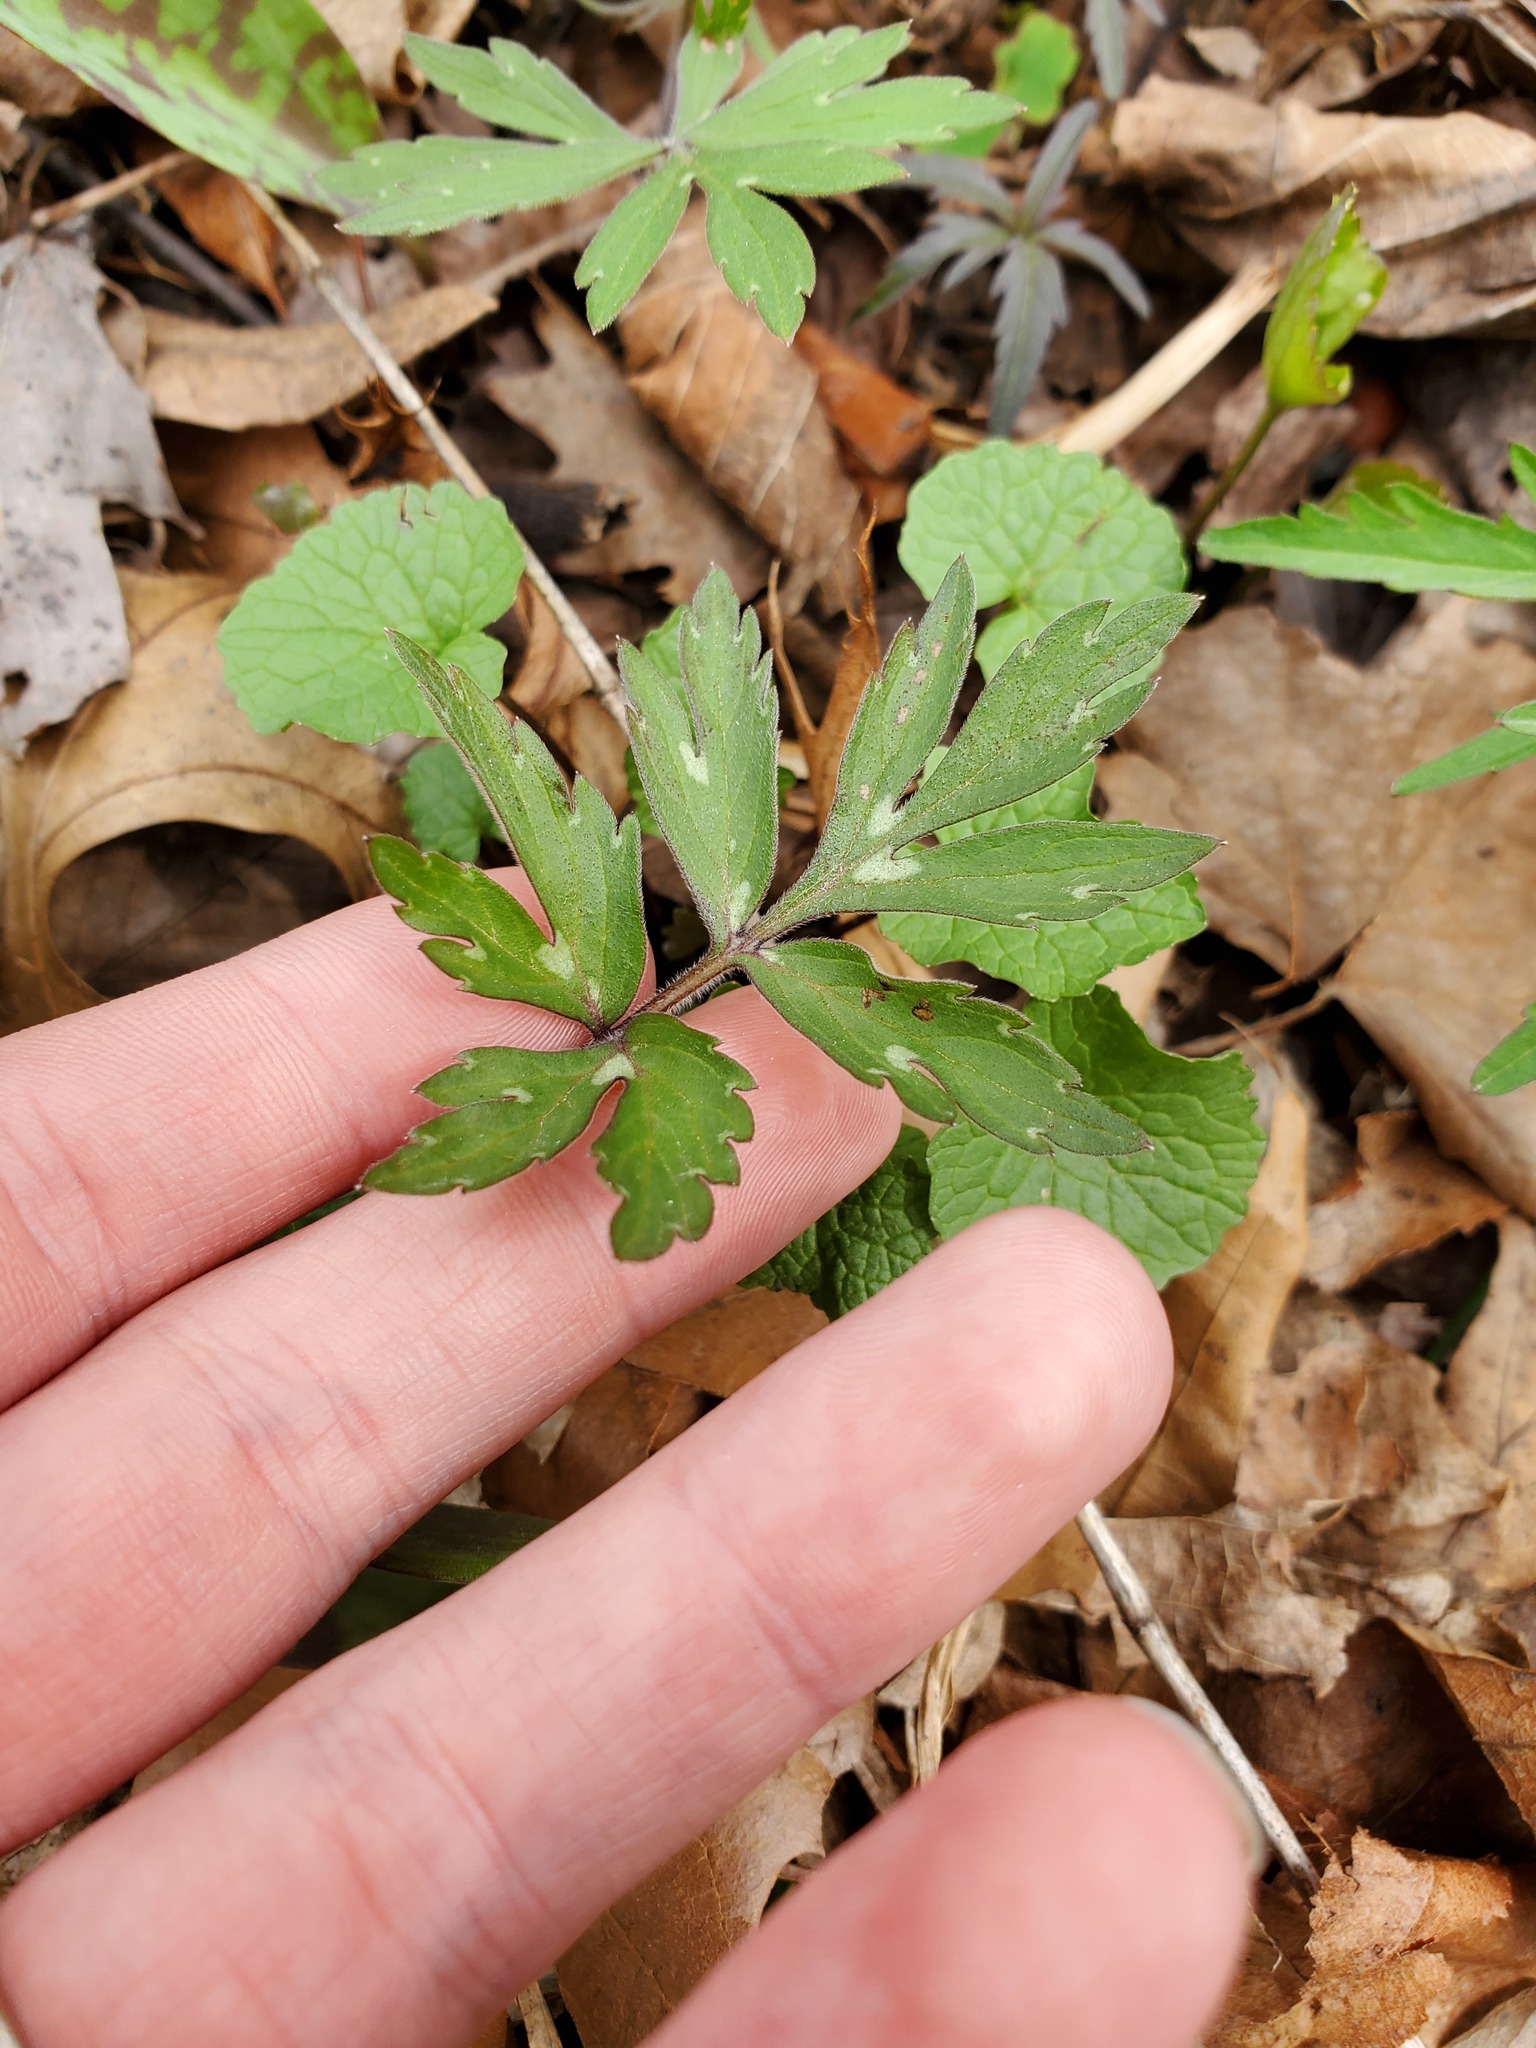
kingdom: Plantae
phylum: Tracheophyta
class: Magnoliopsida
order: Boraginales
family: Hydrophyllaceae
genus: Hydrophyllum
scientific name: Hydrophyllum virginianum
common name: Virginia waterleaf
